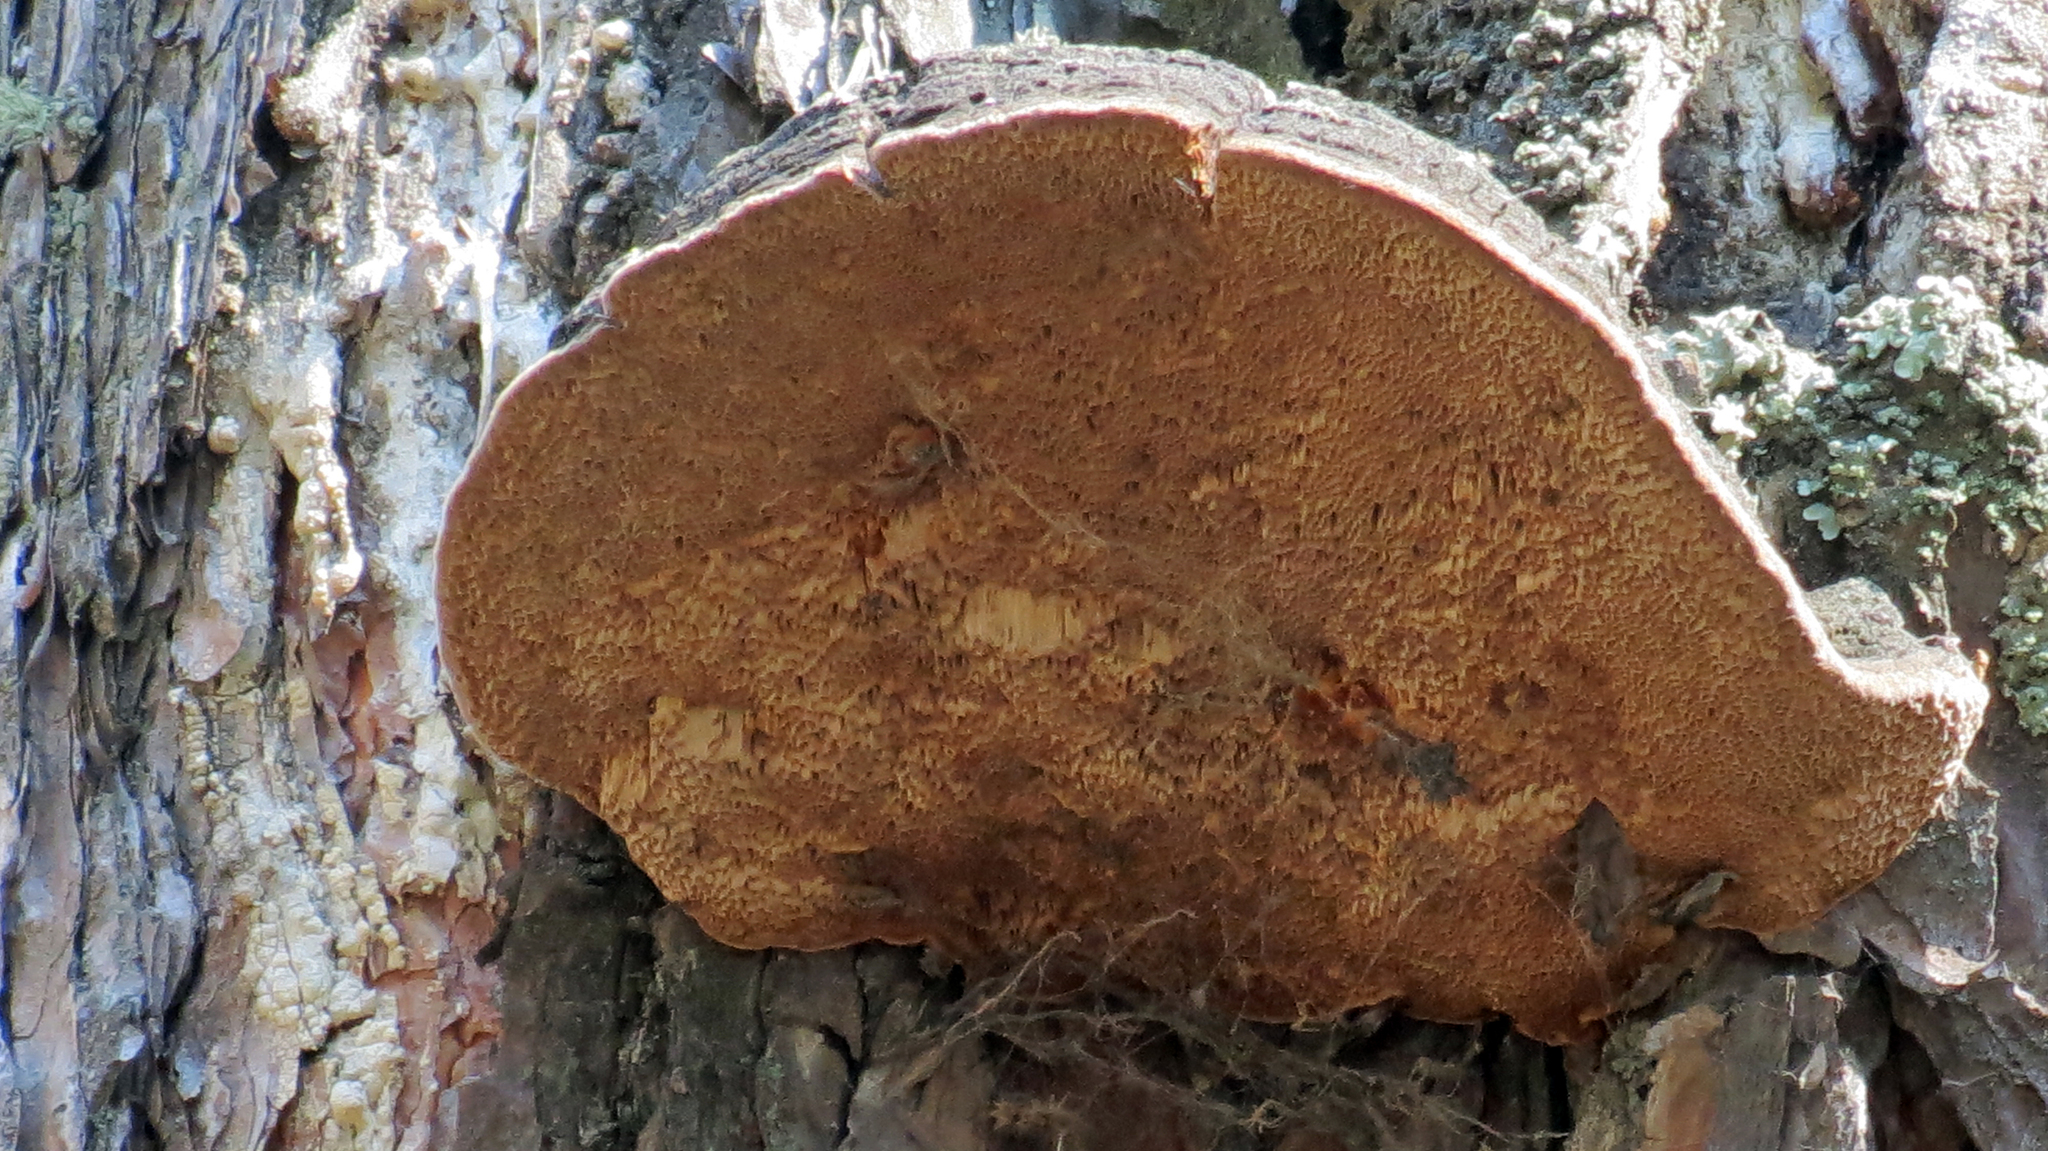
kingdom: Fungi
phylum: Basidiomycota
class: Agaricomycetes
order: Hymenochaetales
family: Hymenochaetaceae
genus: Porodaedalea
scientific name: Porodaedalea pini
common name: Pine bracket
